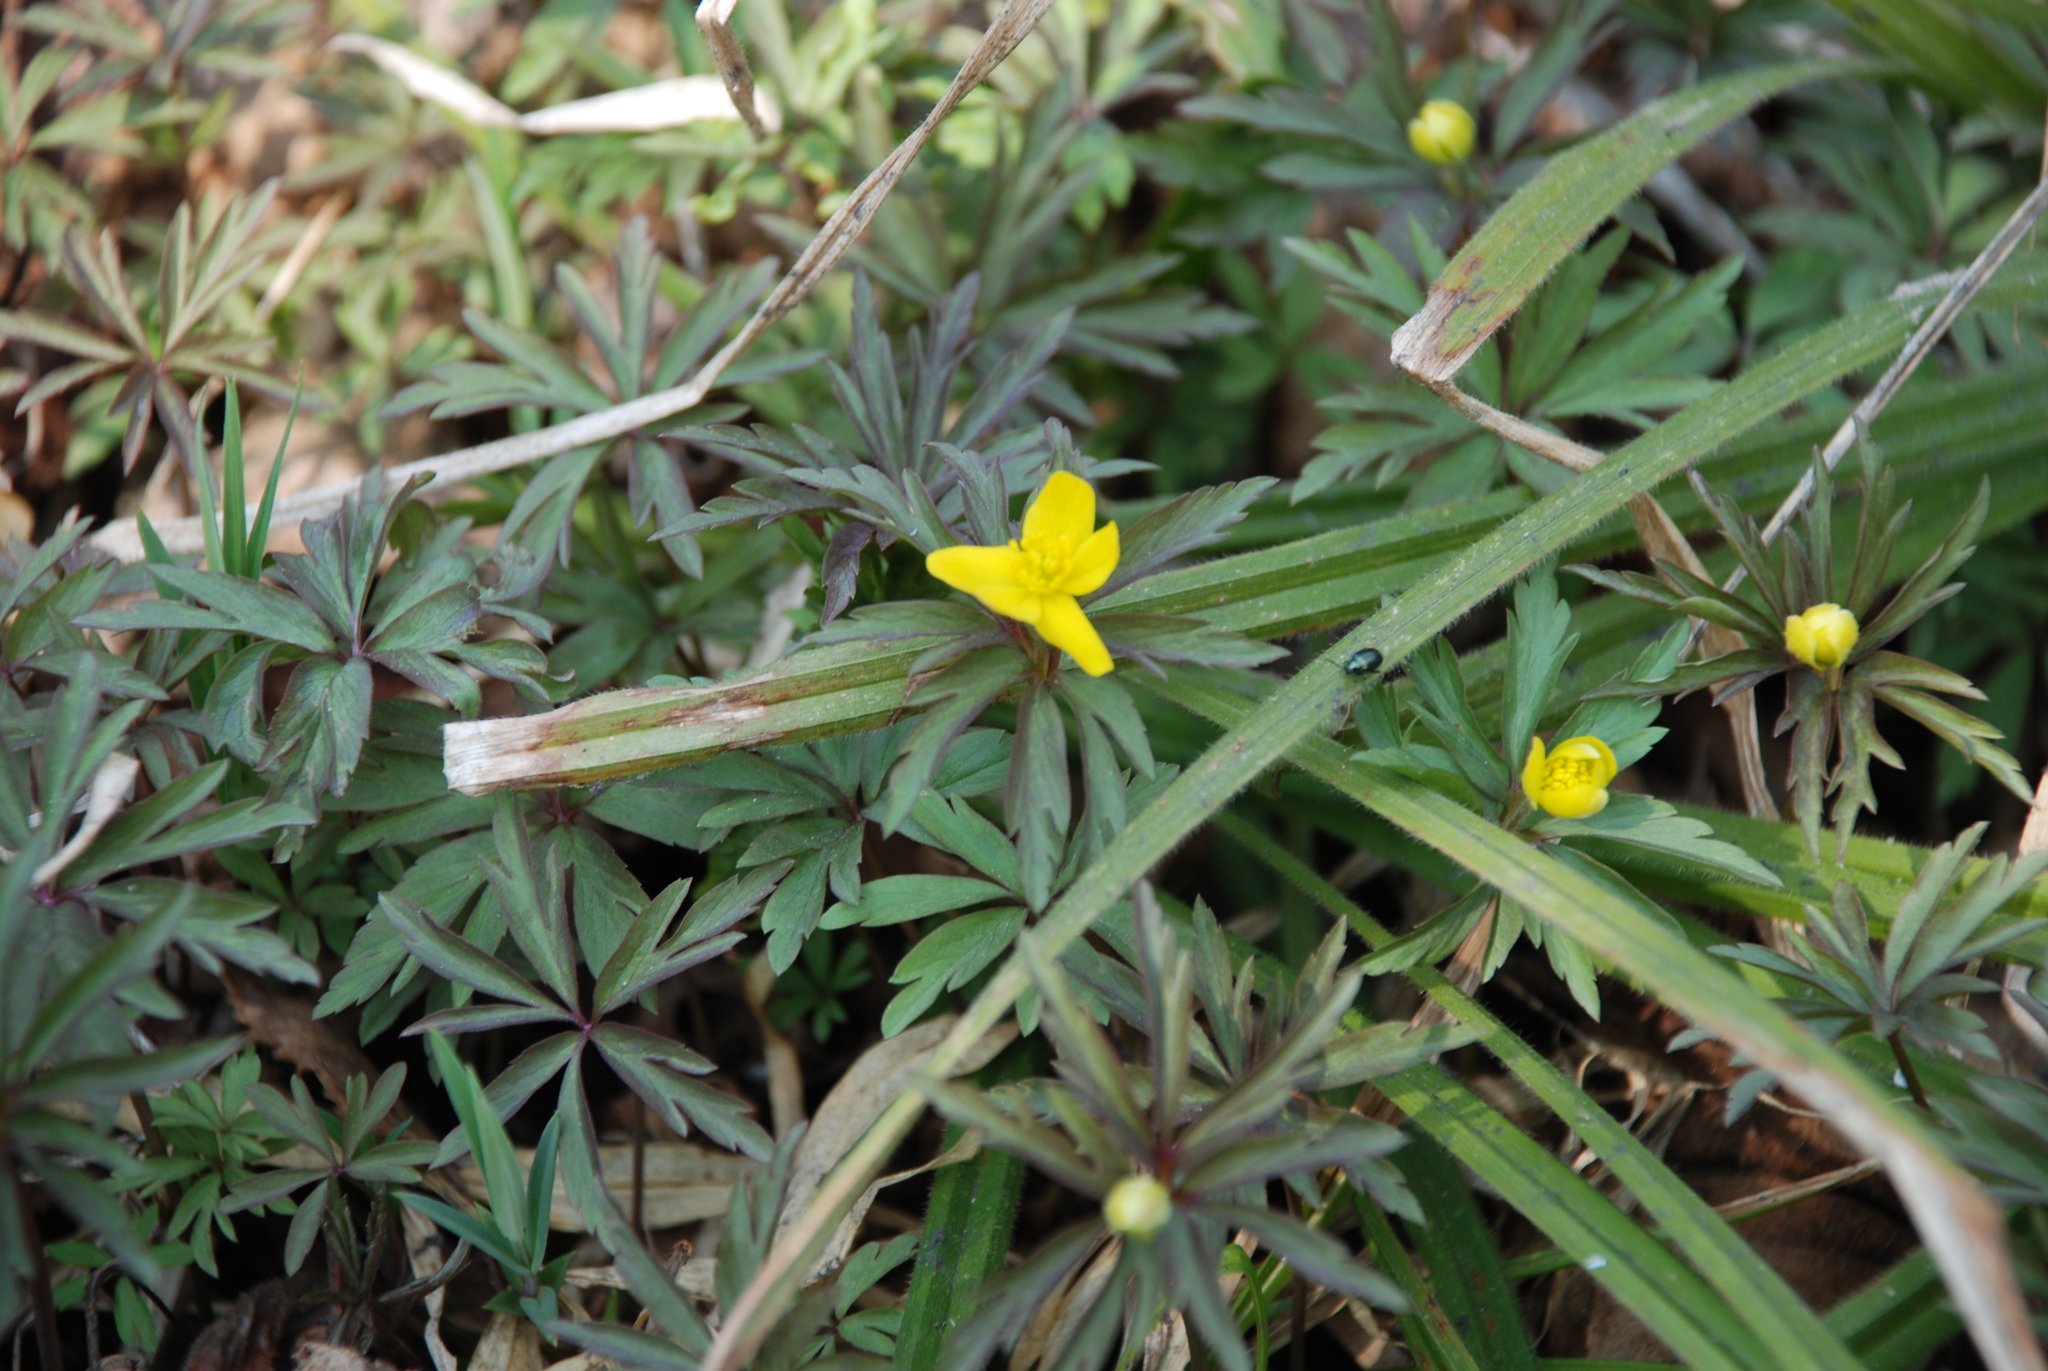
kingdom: Plantae
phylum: Tracheophyta
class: Magnoliopsida
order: Ranunculales
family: Ranunculaceae
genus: Anemone
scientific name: Anemone ranunculoides
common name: Yellow anemone
